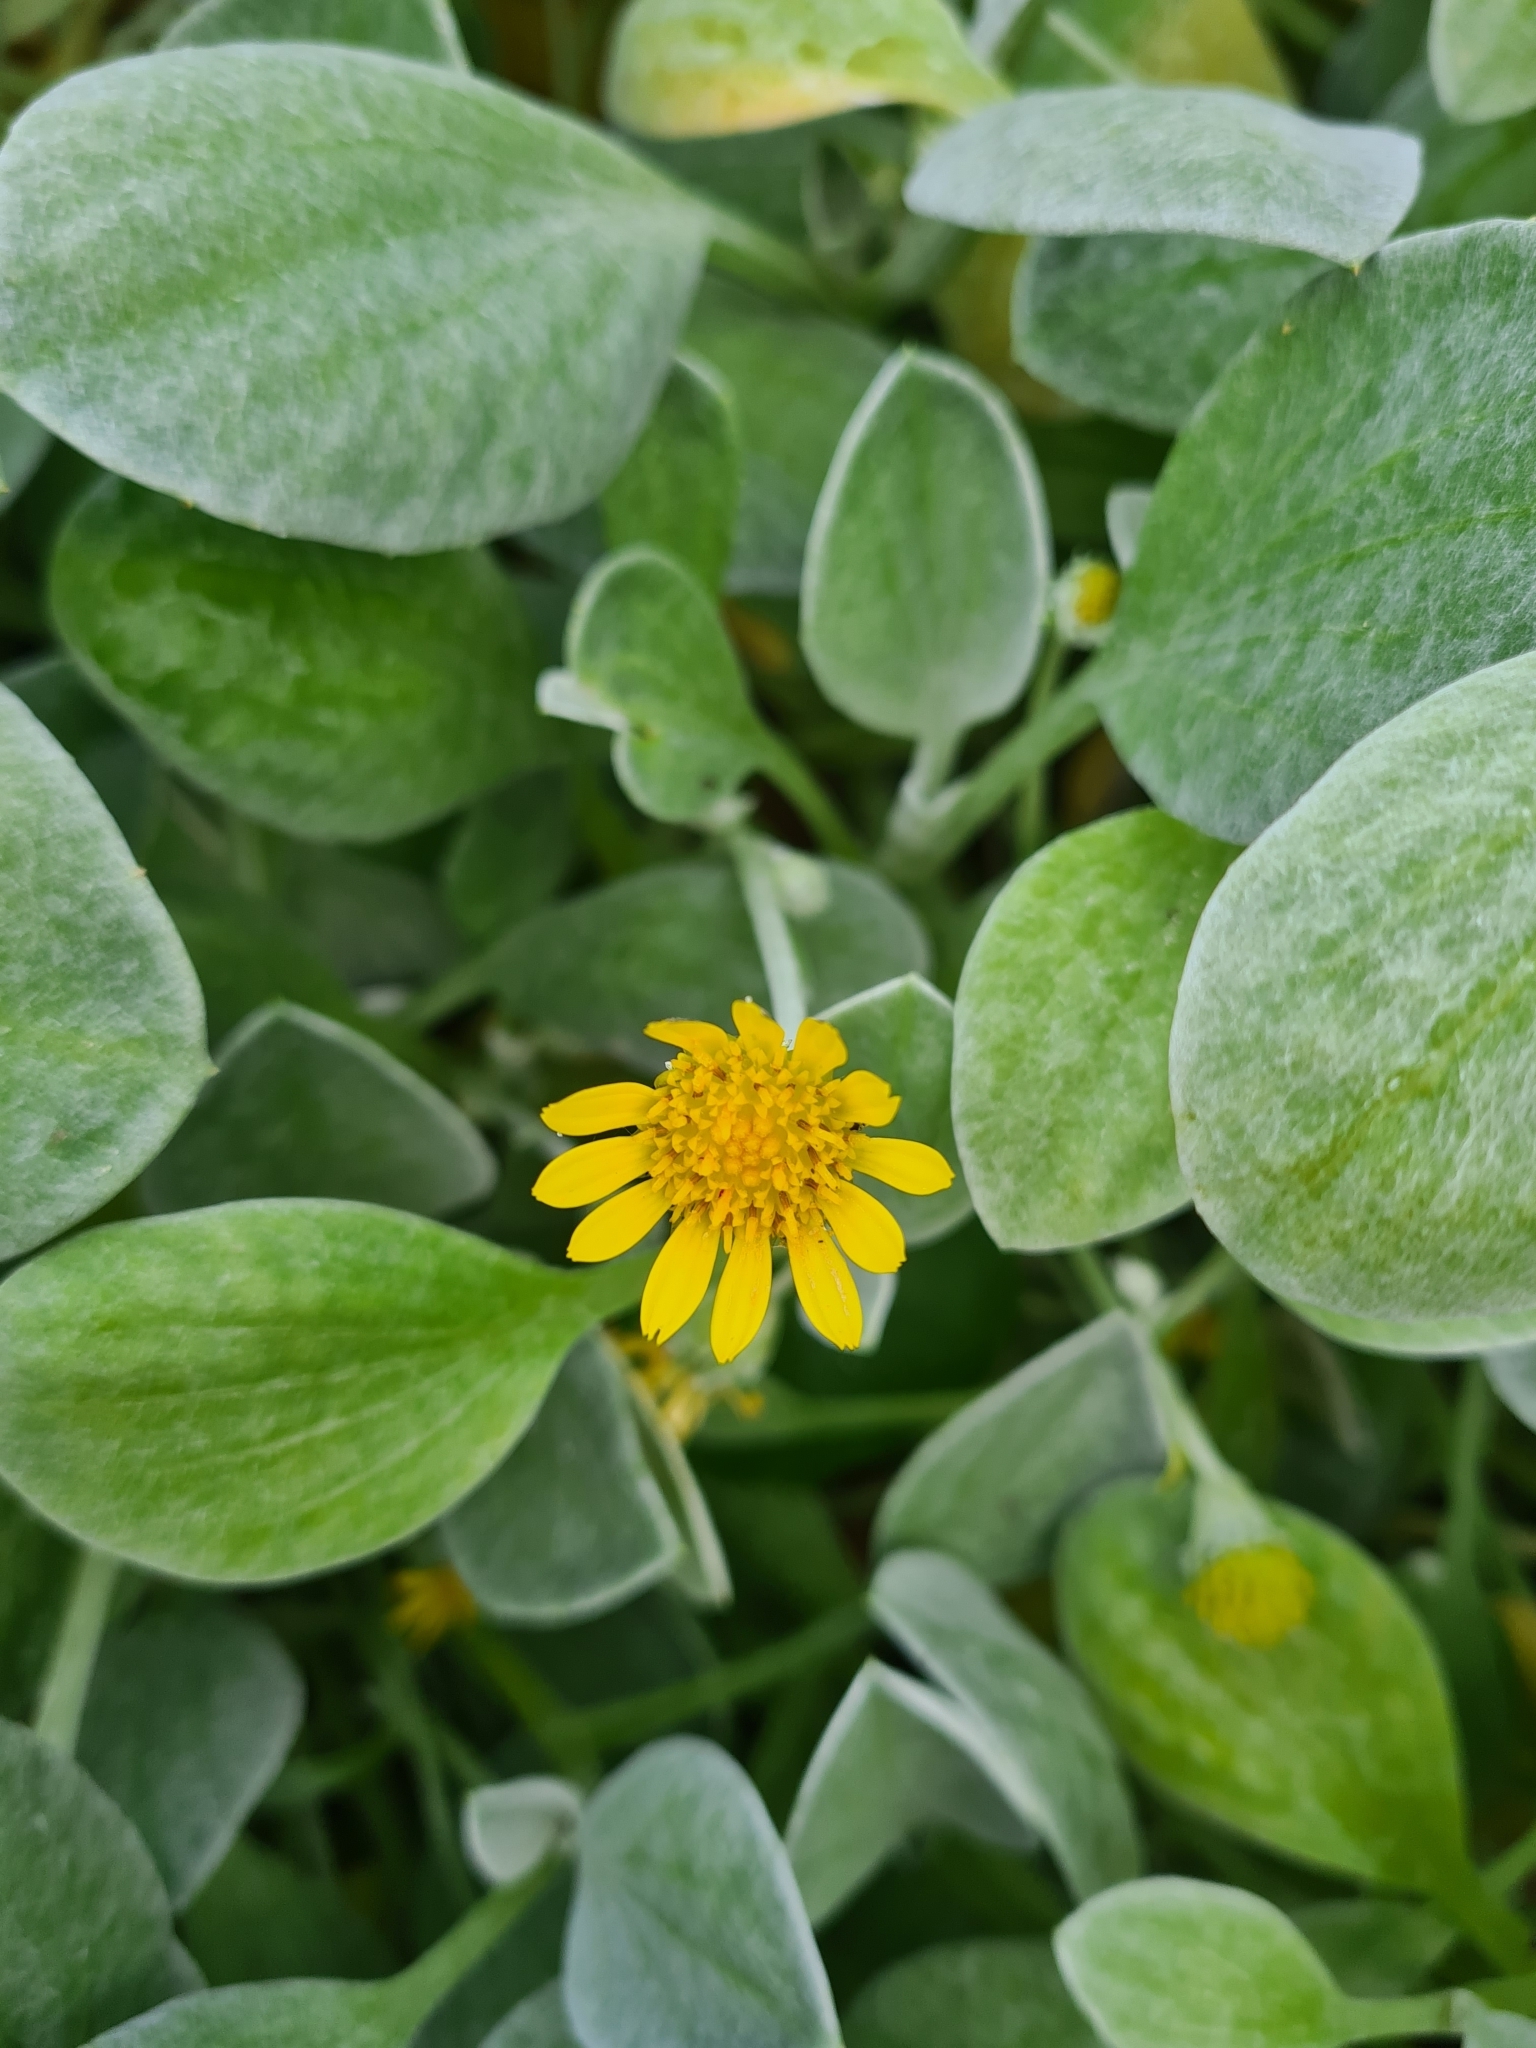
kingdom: Plantae
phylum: Tracheophyta
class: Magnoliopsida
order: Asterales
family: Asteraceae
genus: Arctotheca
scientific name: Arctotheca populifolia
